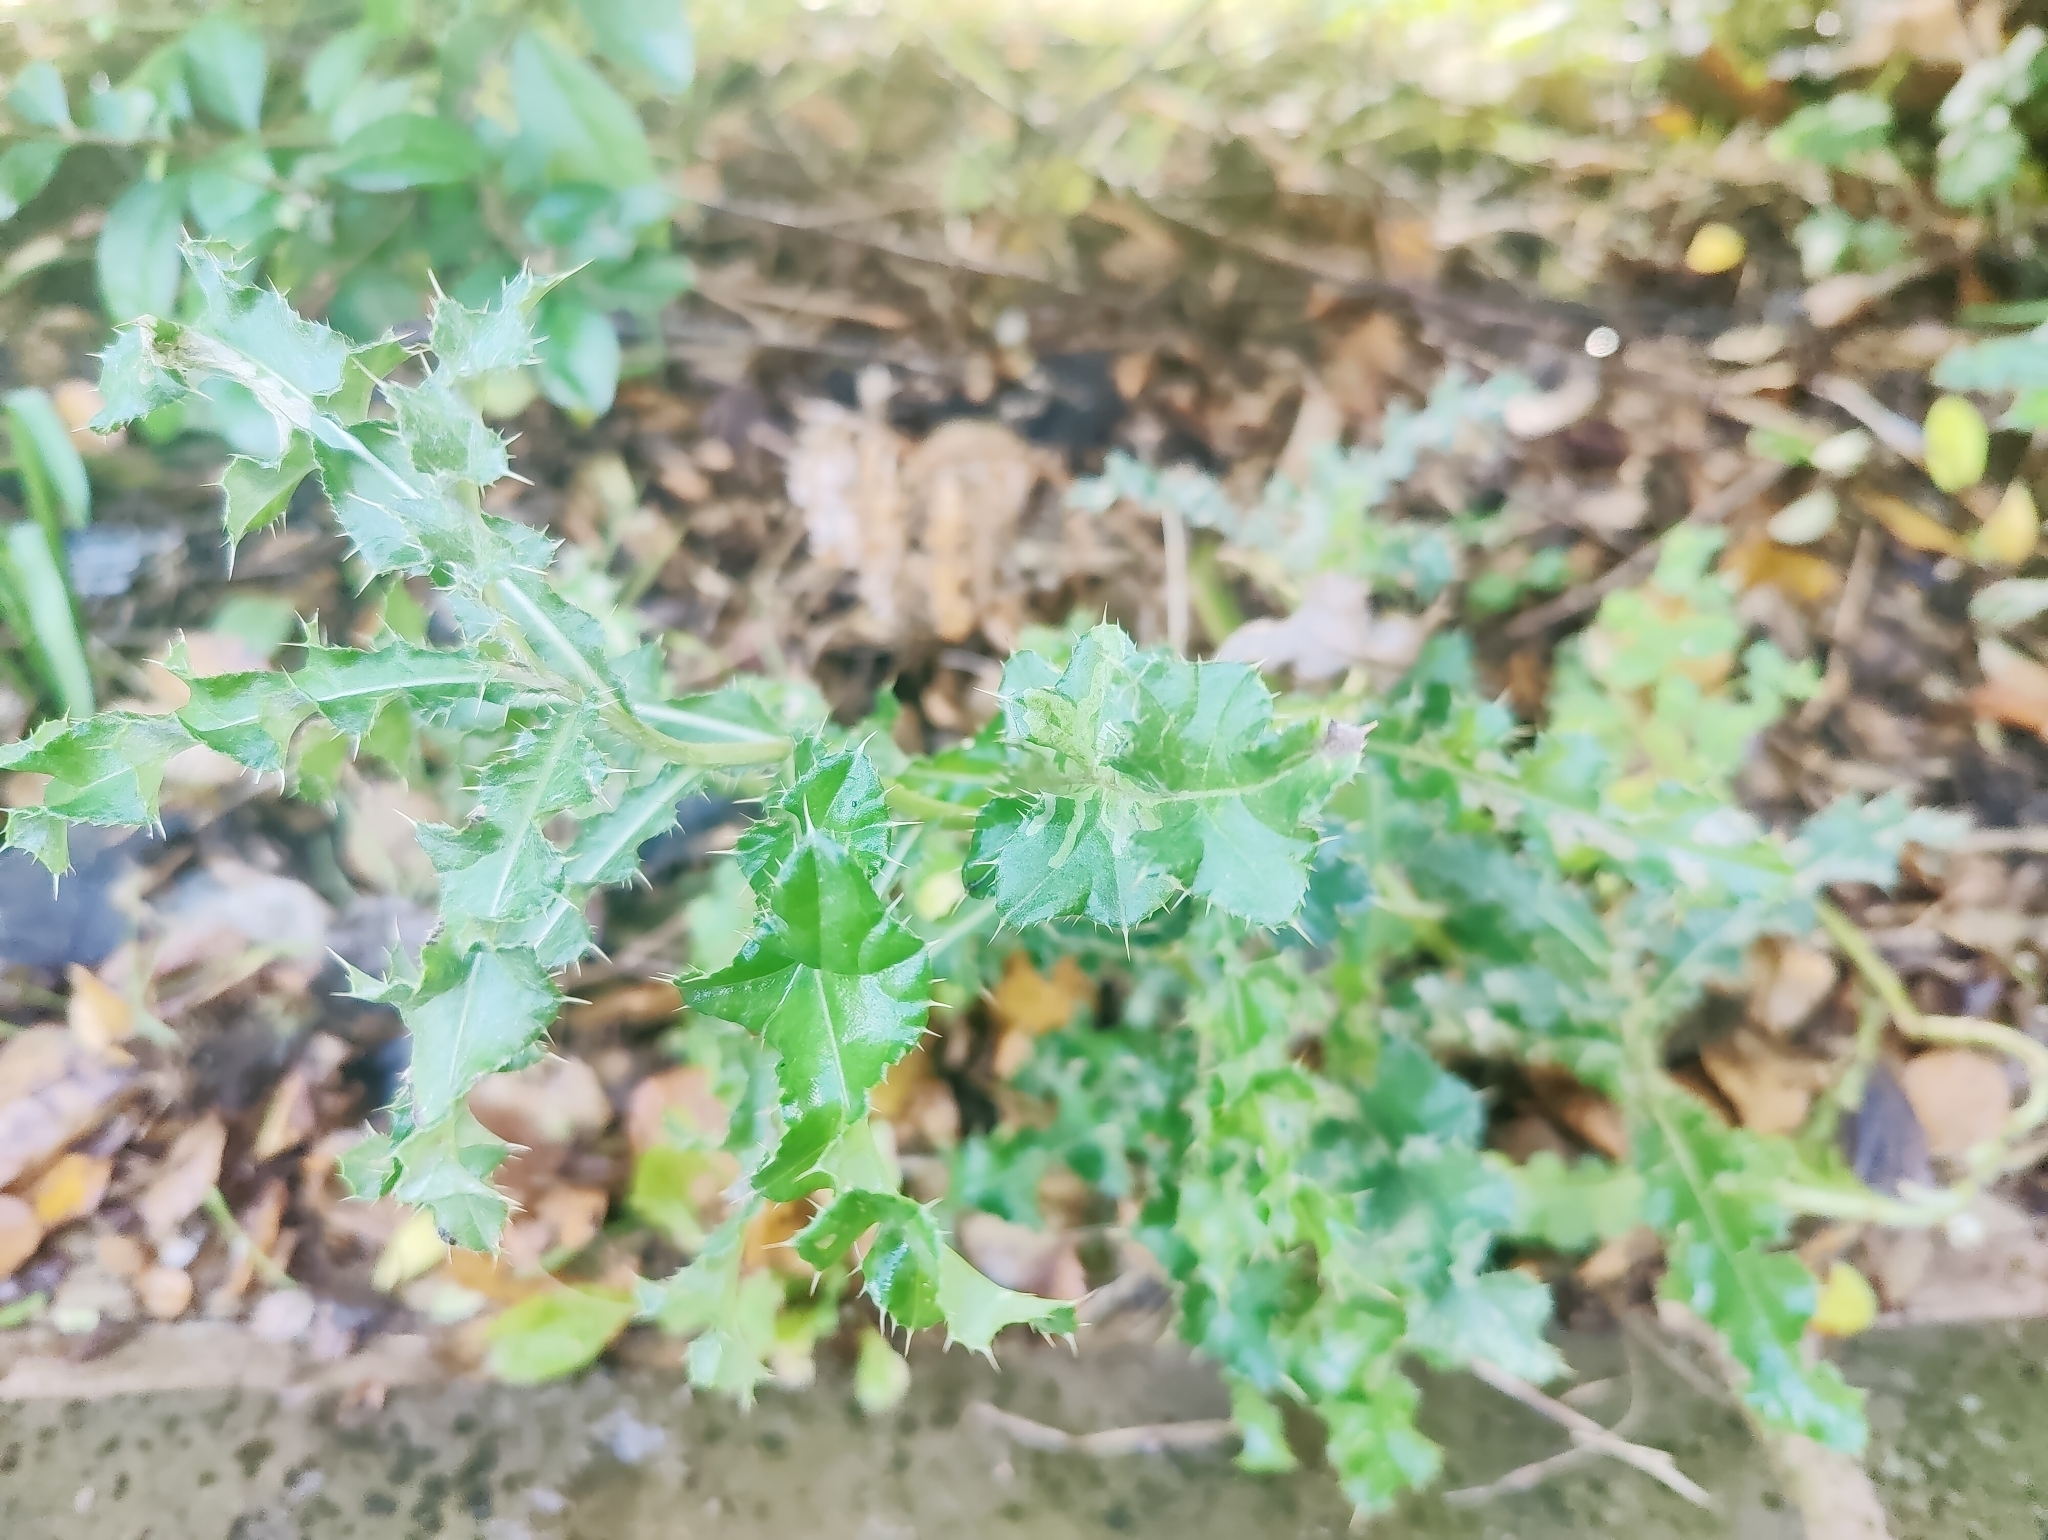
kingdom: Plantae
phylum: Tracheophyta
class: Magnoliopsida
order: Asterales
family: Asteraceae
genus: Cirsium
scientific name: Cirsium arvense
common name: Creeping thistle
